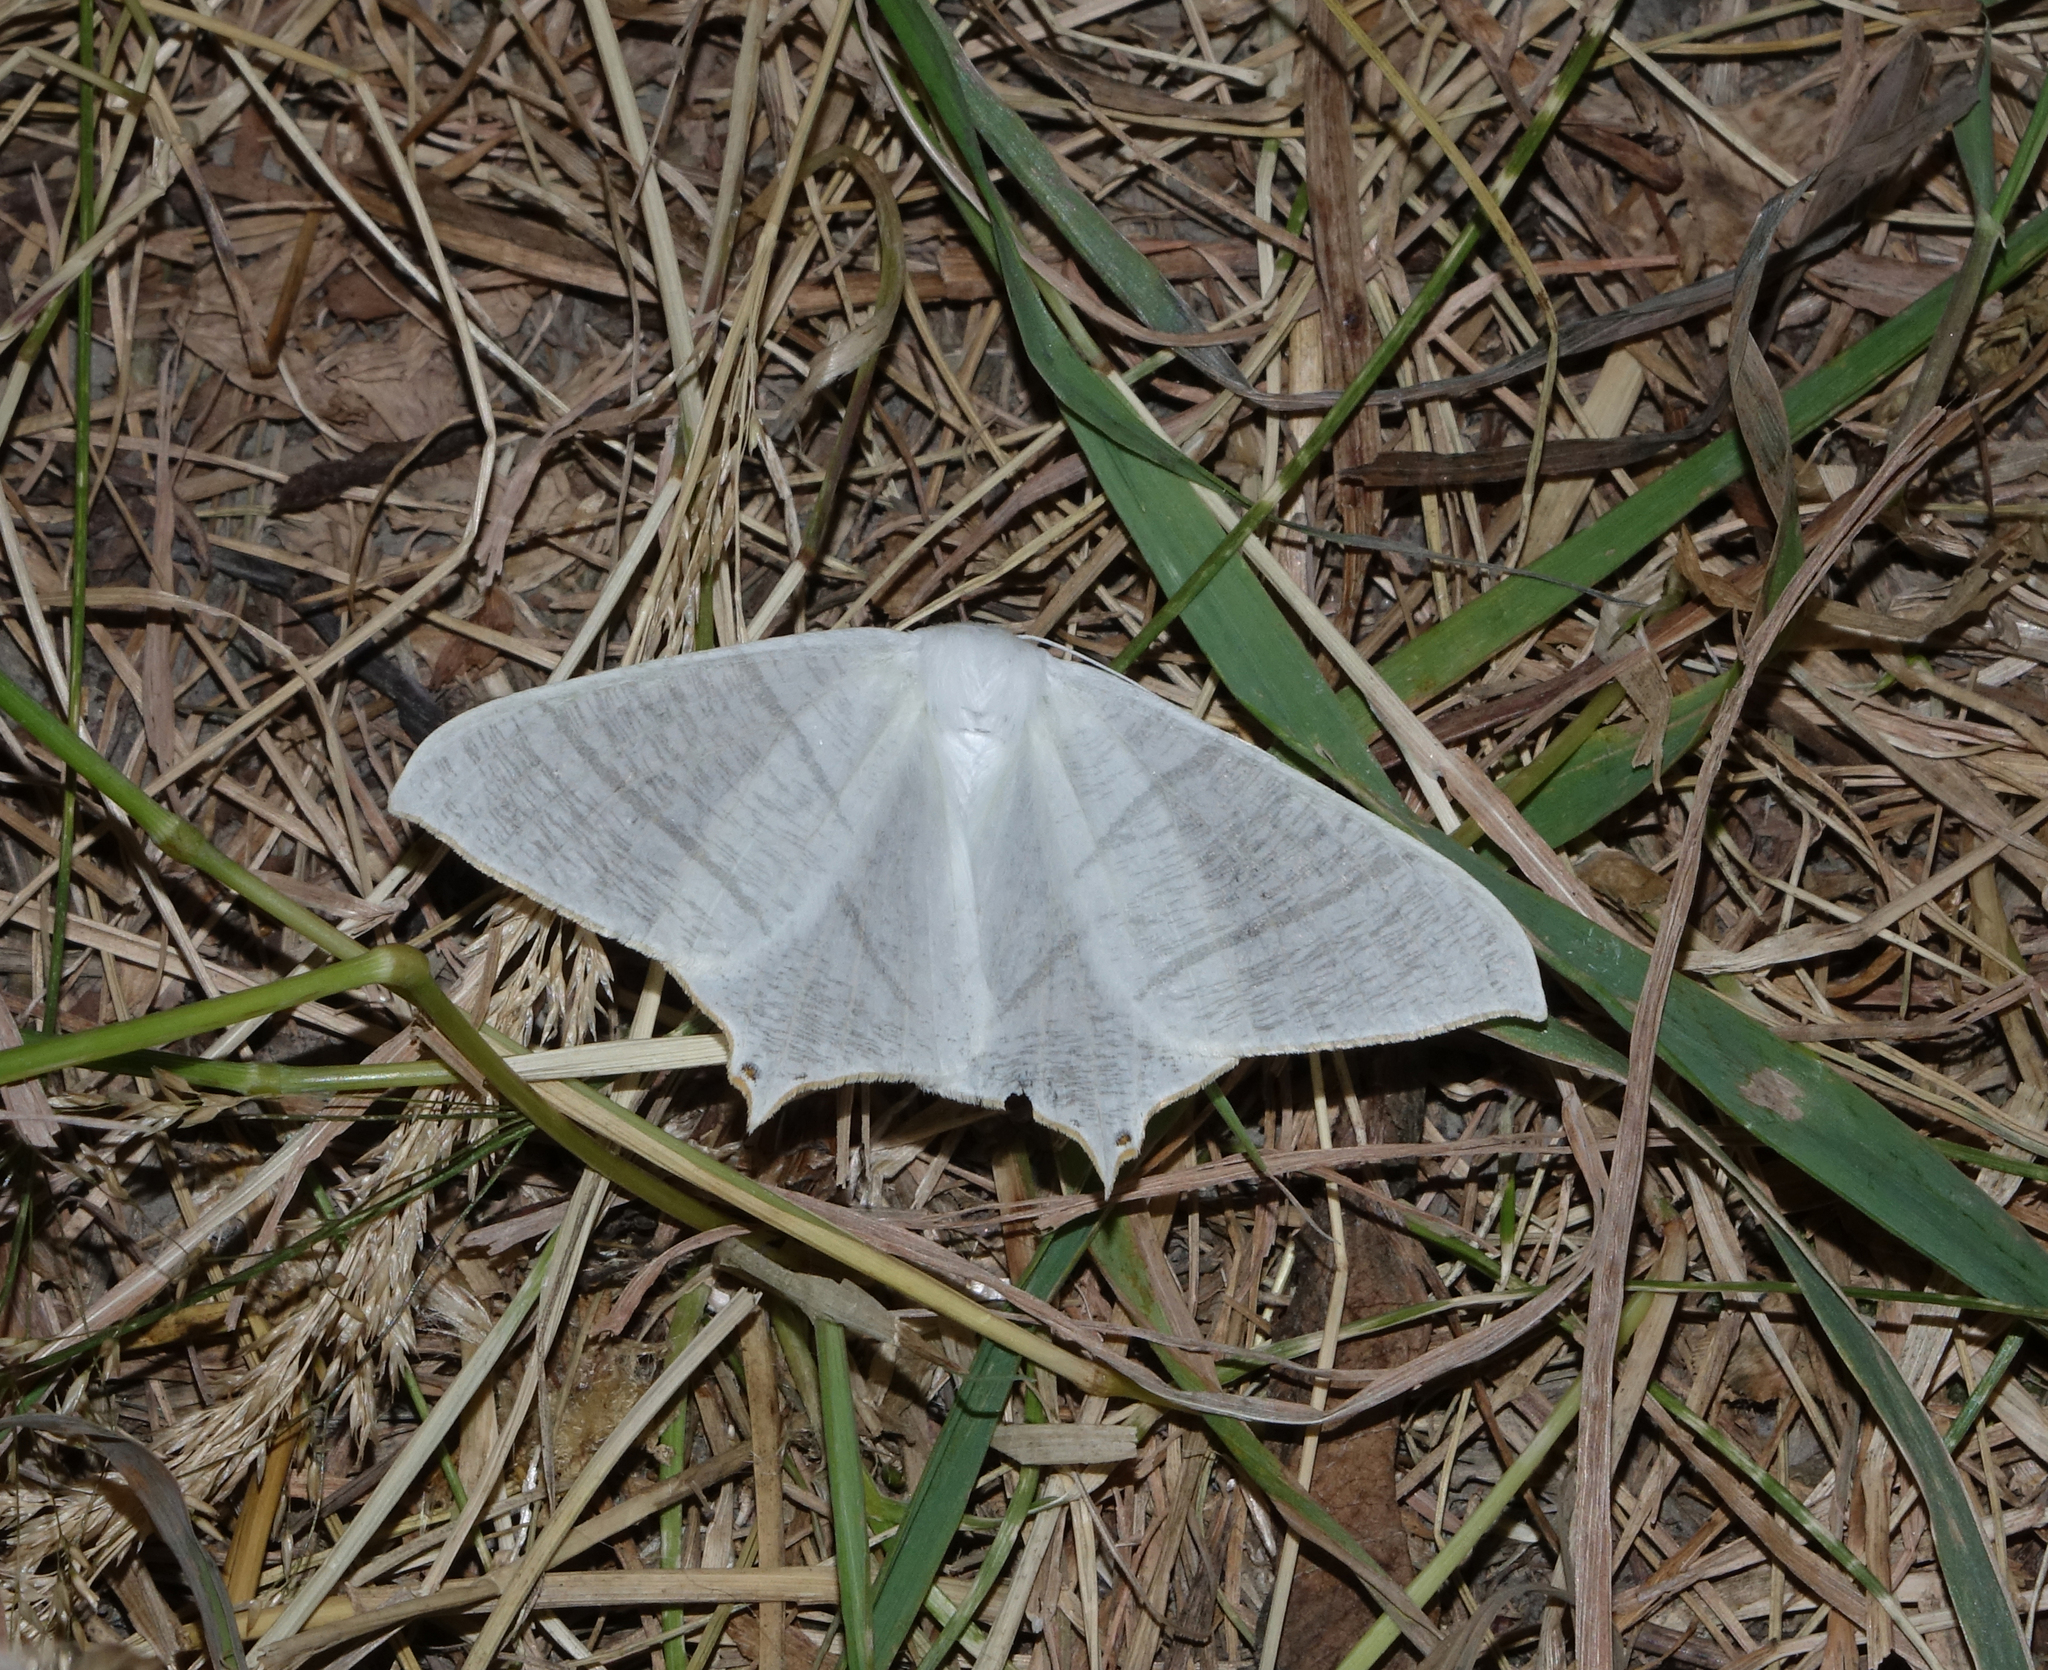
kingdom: Animalia
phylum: Arthropoda
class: Insecta
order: Lepidoptera
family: Geometridae
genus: Ourapteryx
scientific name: Ourapteryx
